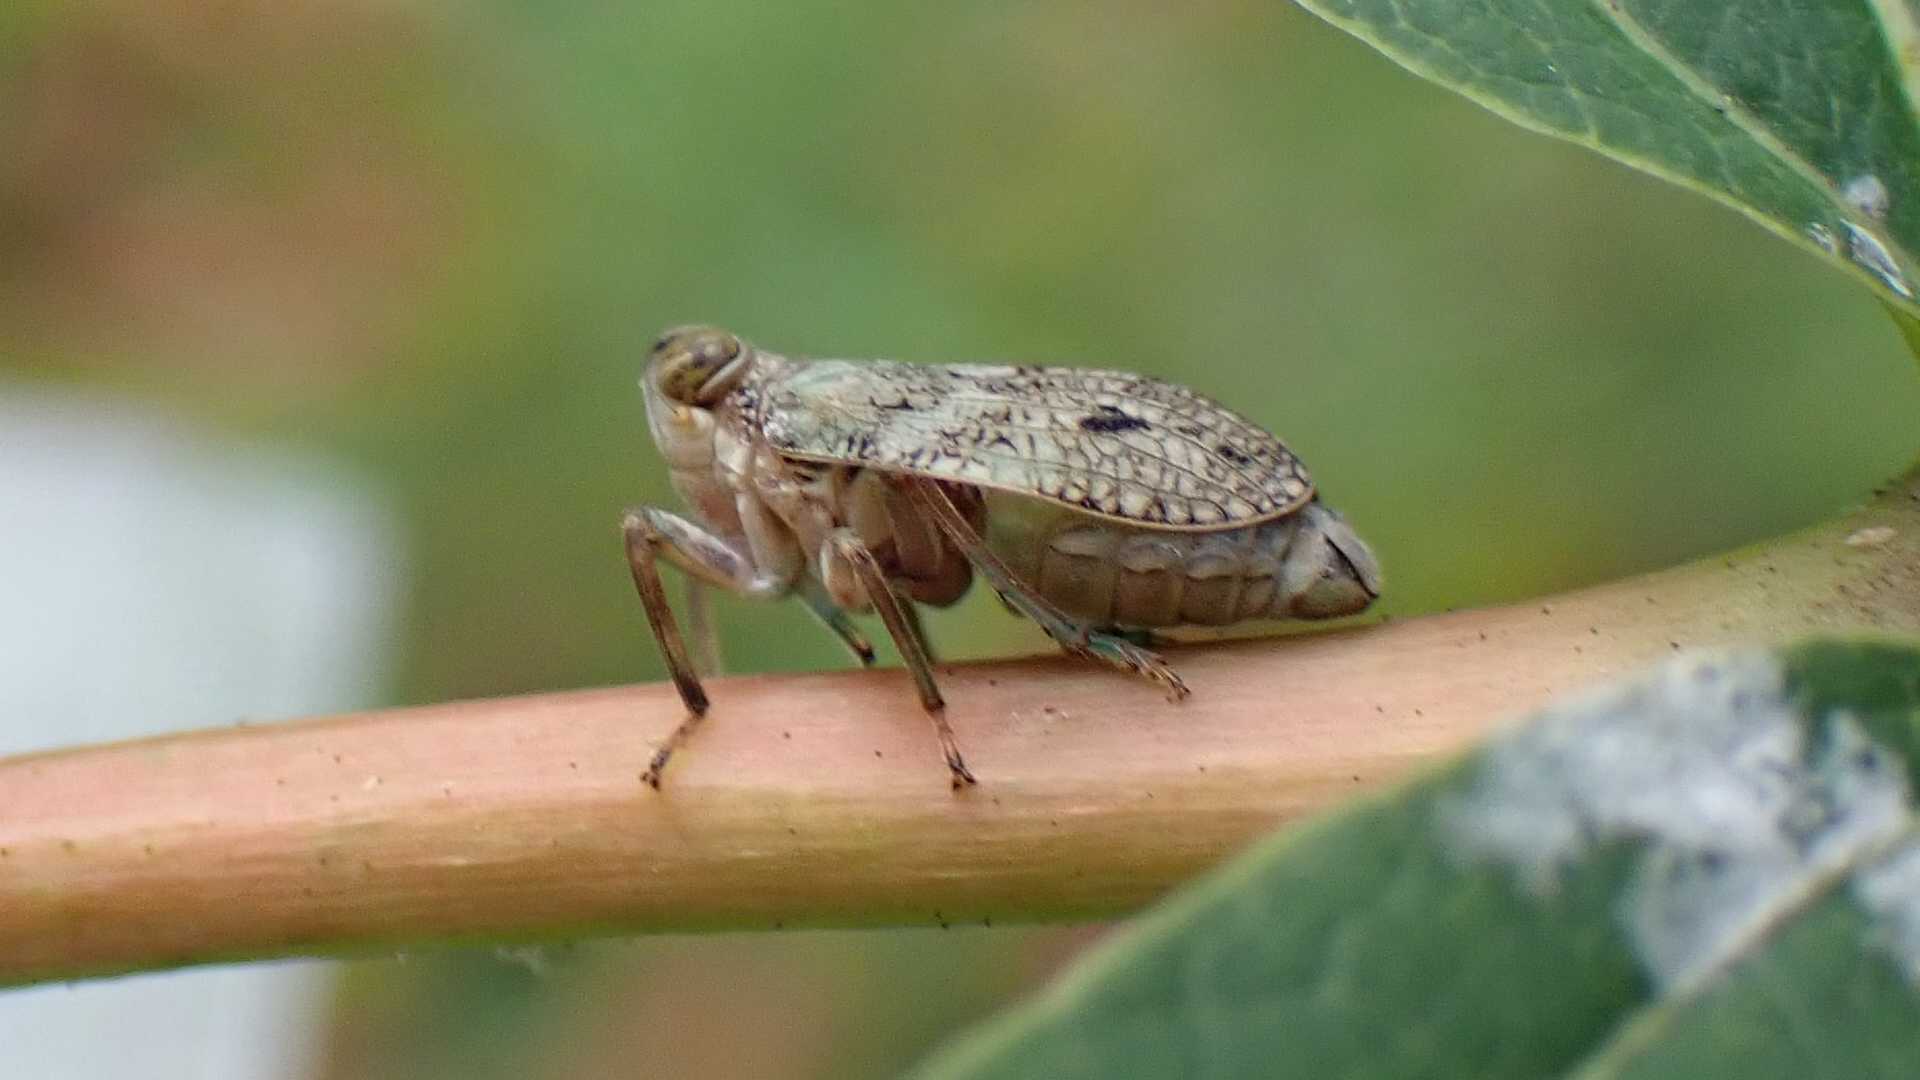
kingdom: Animalia
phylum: Arthropoda
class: Insecta
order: Hemiptera
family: Issidae
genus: Issus
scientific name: Issus coleoptratus
